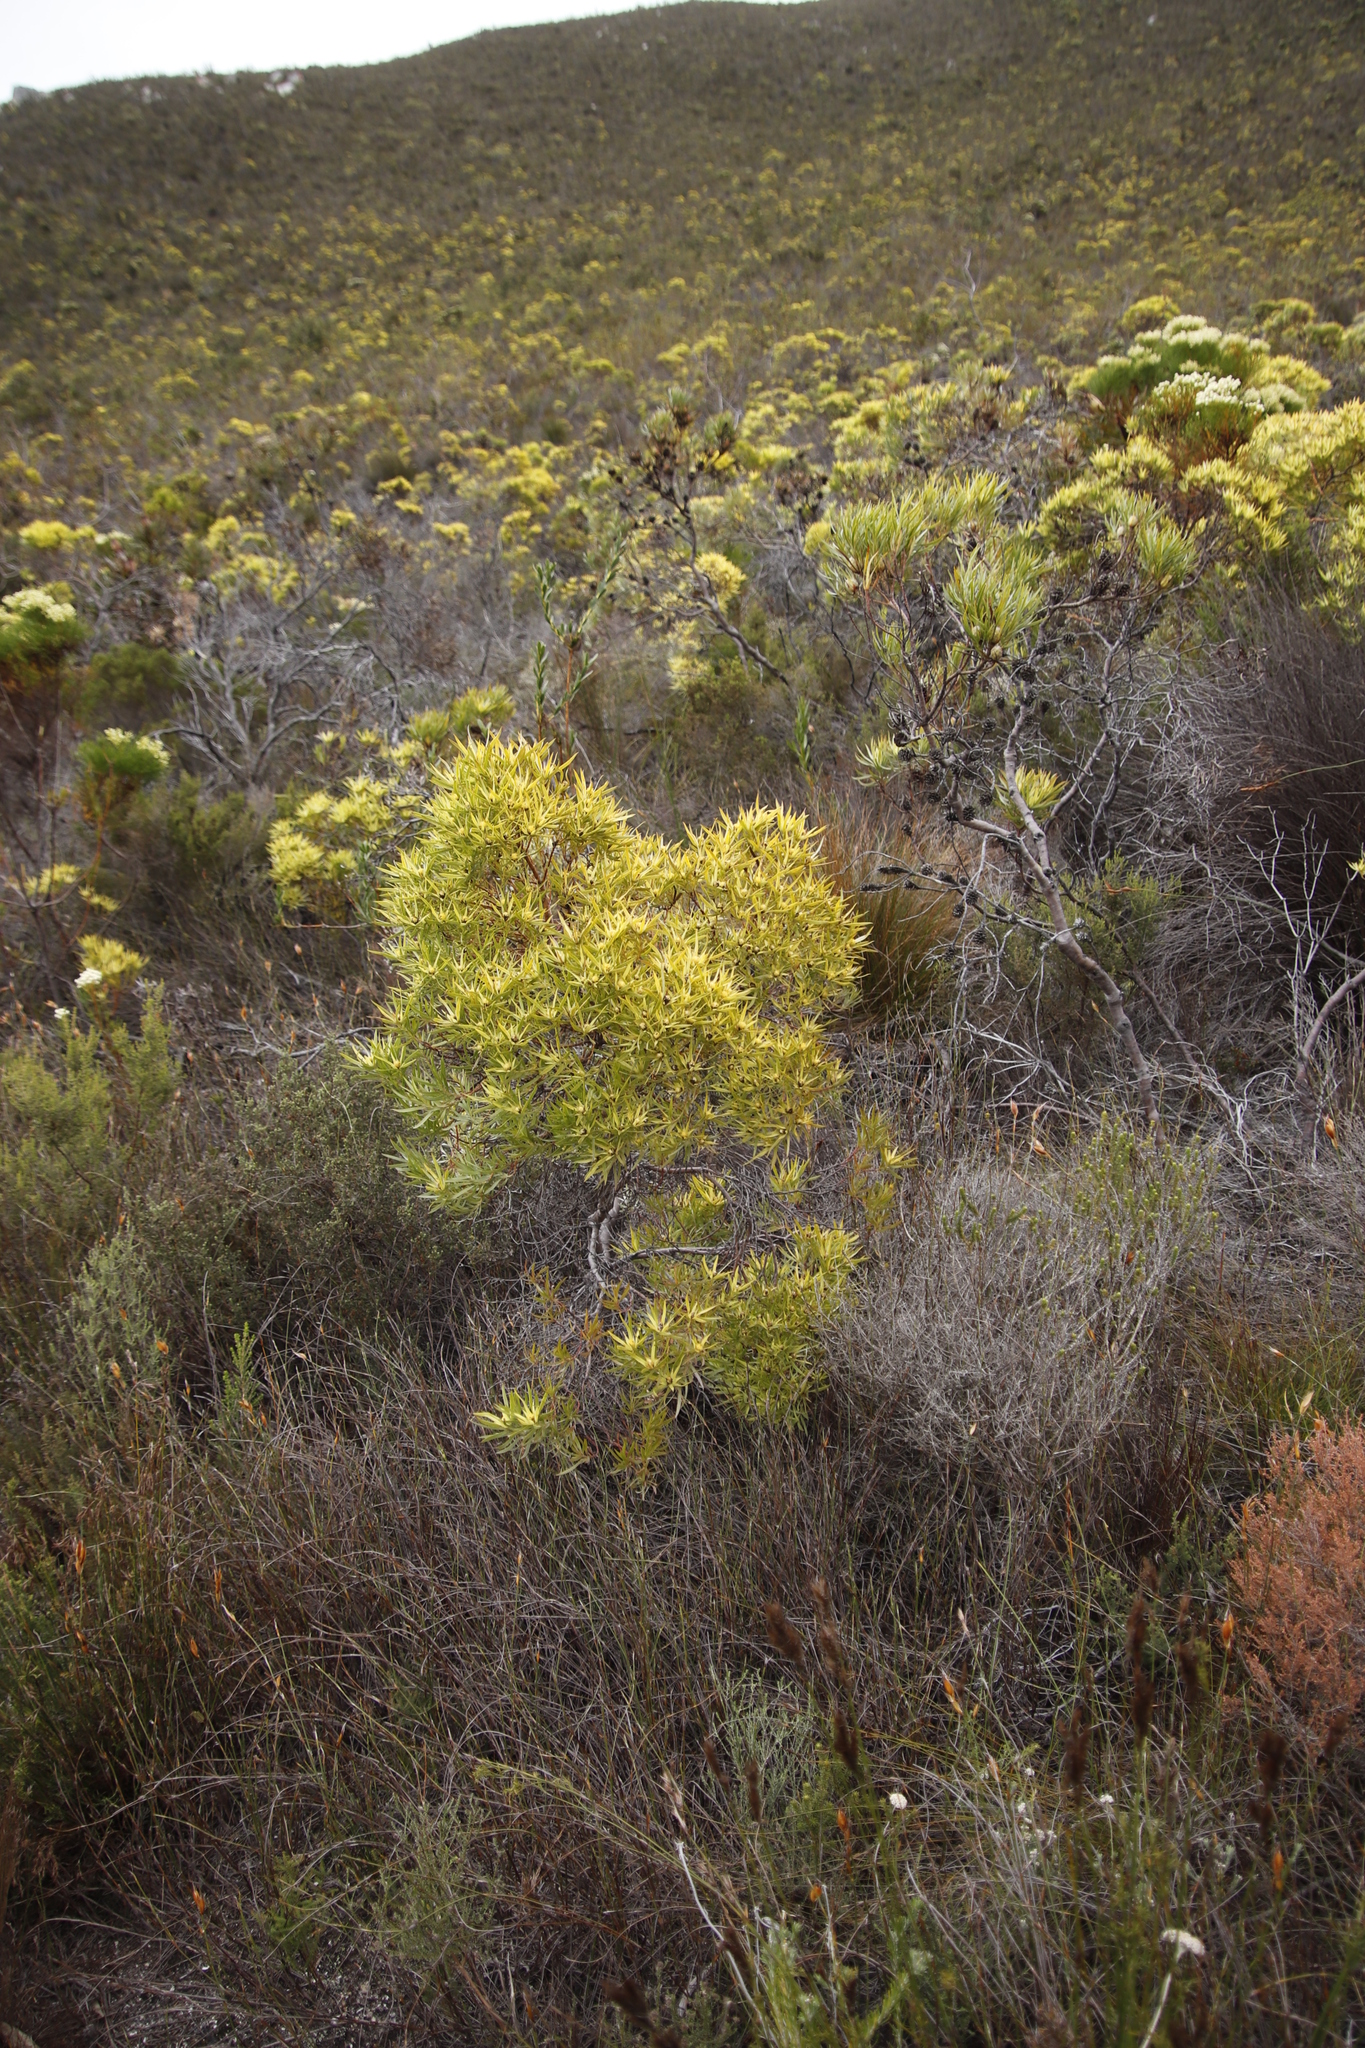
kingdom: Plantae
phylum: Tracheophyta
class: Magnoliopsida
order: Proteales
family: Proteaceae
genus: Leucadendron
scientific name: Leucadendron xanthoconus
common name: Sickle-leaf conebush
